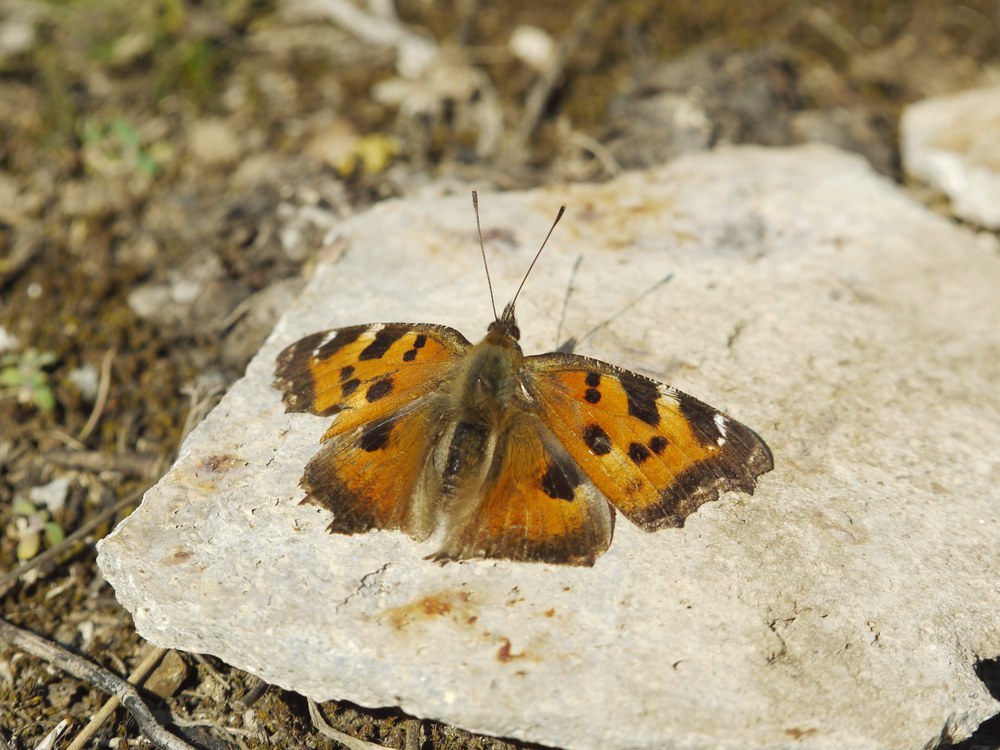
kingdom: Animalia
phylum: Arthropoda
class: Insecta
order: Lepidoptera
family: Nymphalidae
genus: Nymphalis
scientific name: Nymphalis xanthomelas
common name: Scarce tortoiseshell
